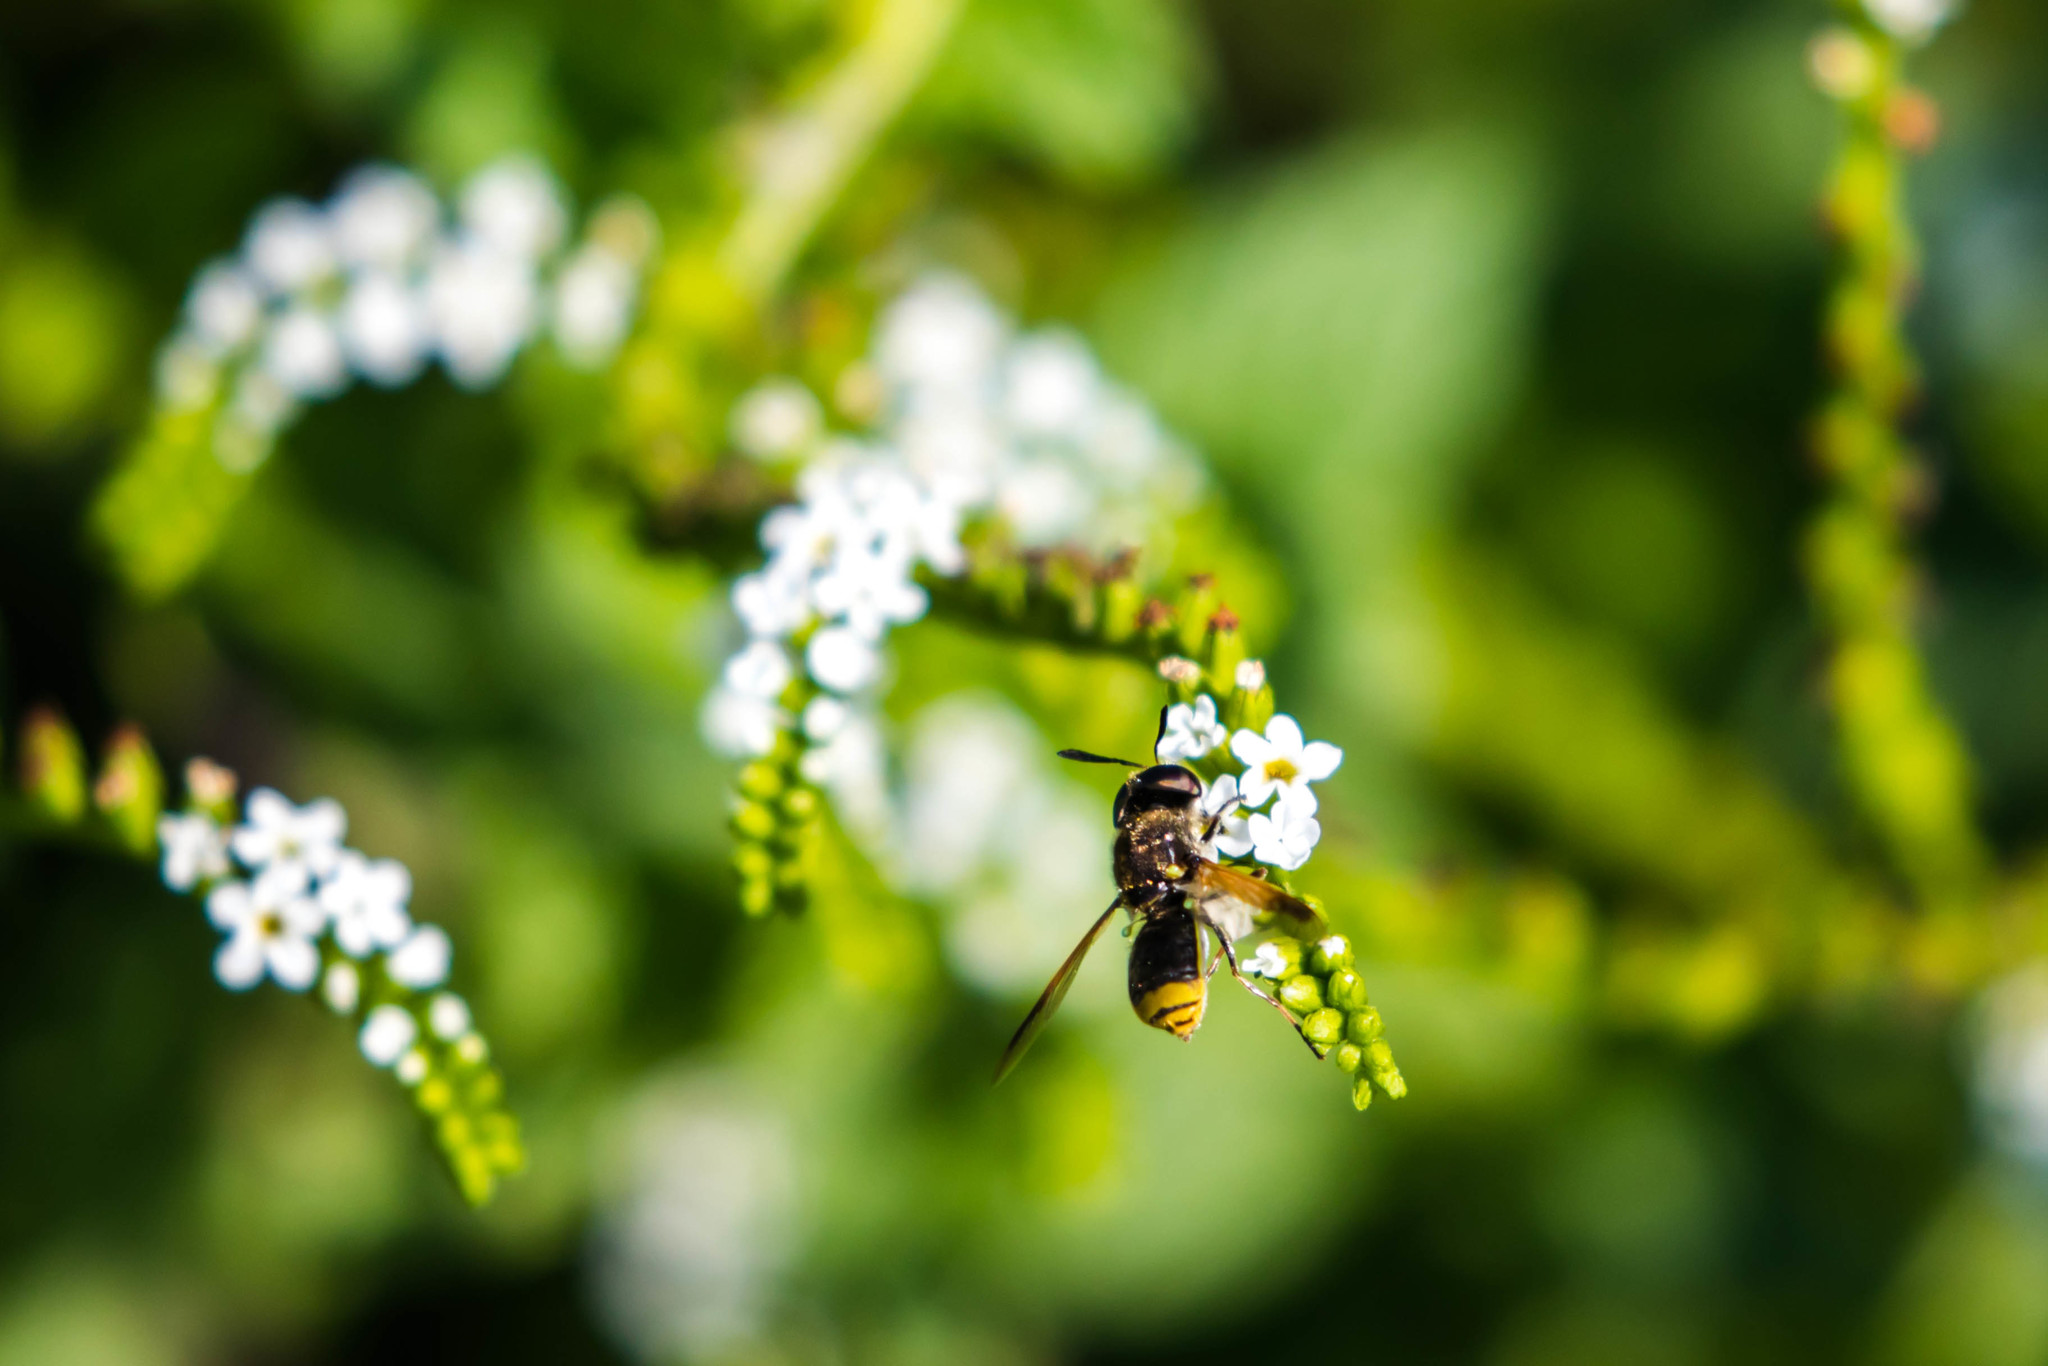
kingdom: Animalia
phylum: Arthropoda
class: Insecta
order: Diptera
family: Stratiomyidae
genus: Hoplitimyia
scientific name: Hoplitimyia mutabilis
